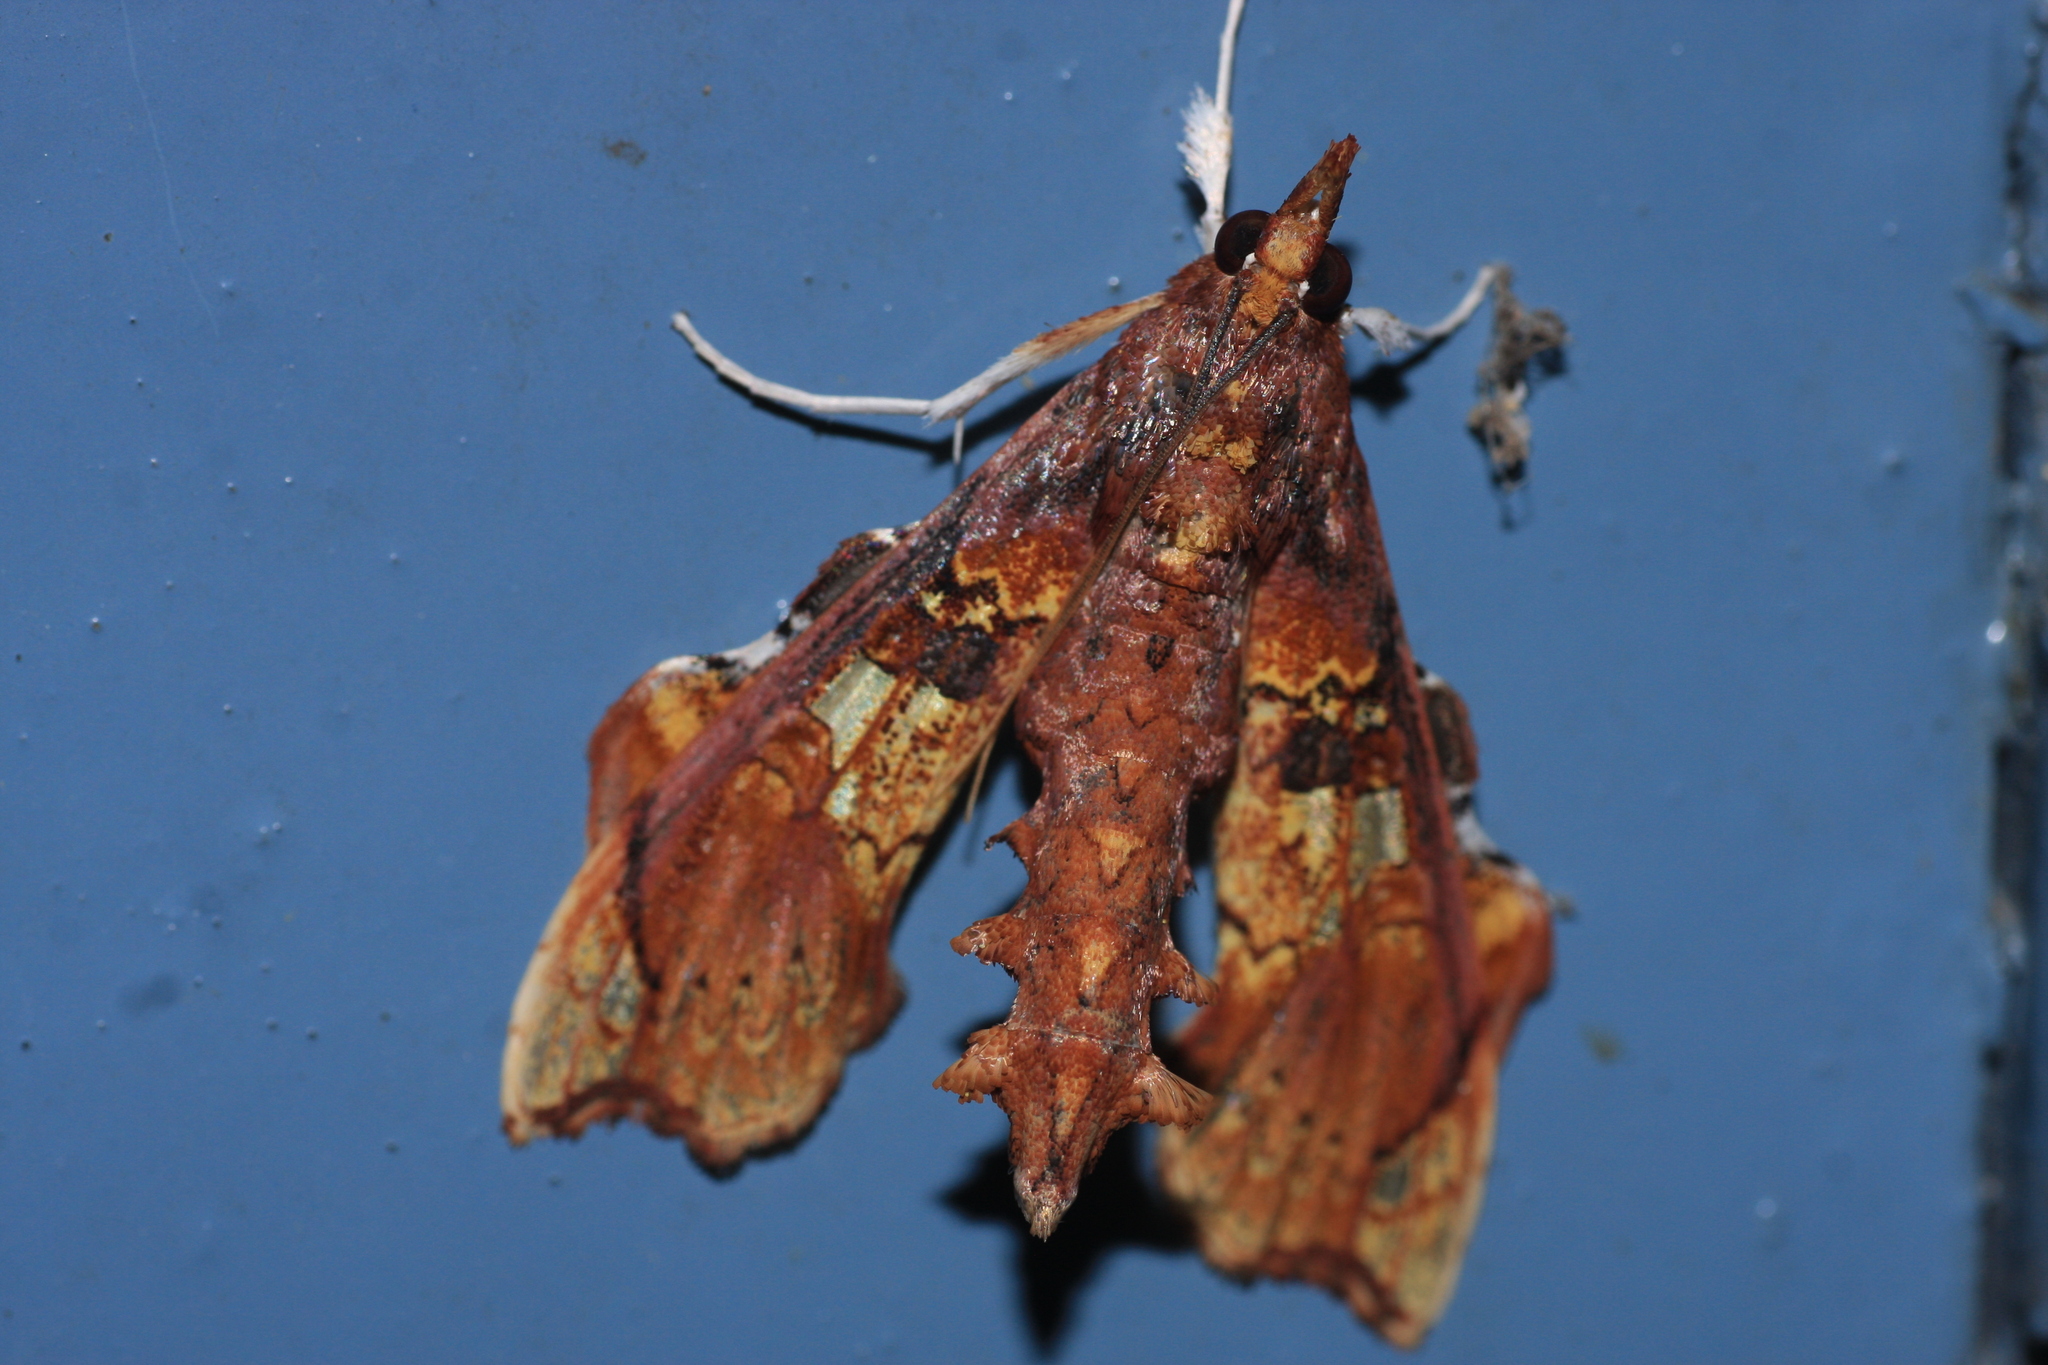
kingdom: Animalia
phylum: Arthropoda
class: Insecta
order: Lepidoptera
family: Crambidae
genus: Terastia
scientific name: Terastia egialealis
